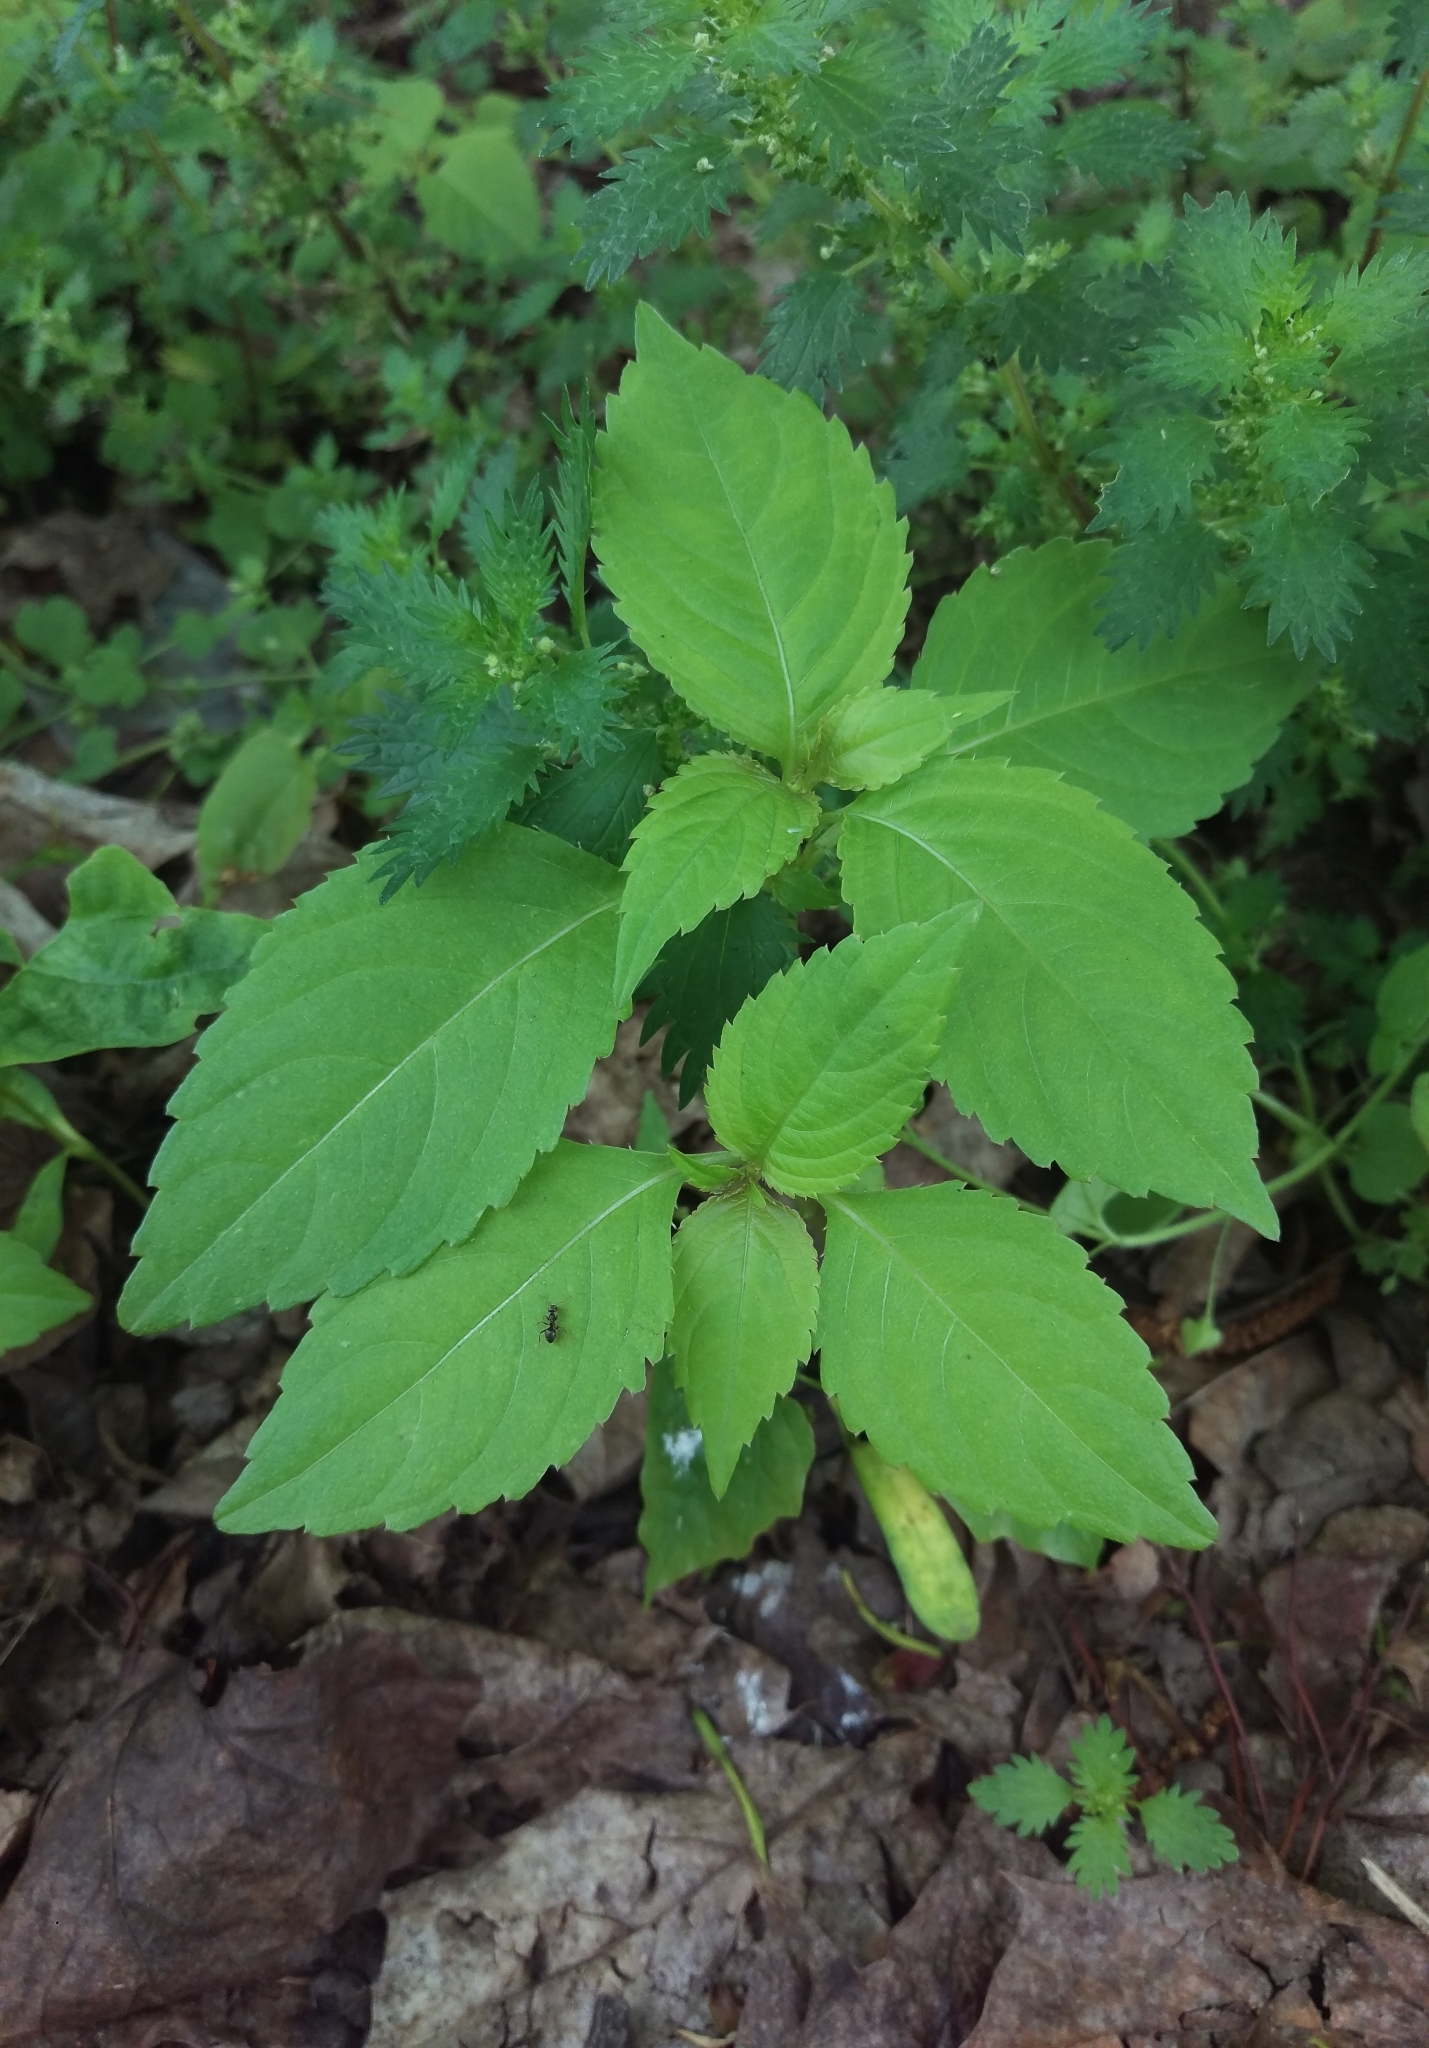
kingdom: Plantae
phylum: Tracheophyta
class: Magnoliopsida
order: Ericales
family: Balsaminaceae
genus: Impatiens
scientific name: Impatiens parviflora
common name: Small balsam
